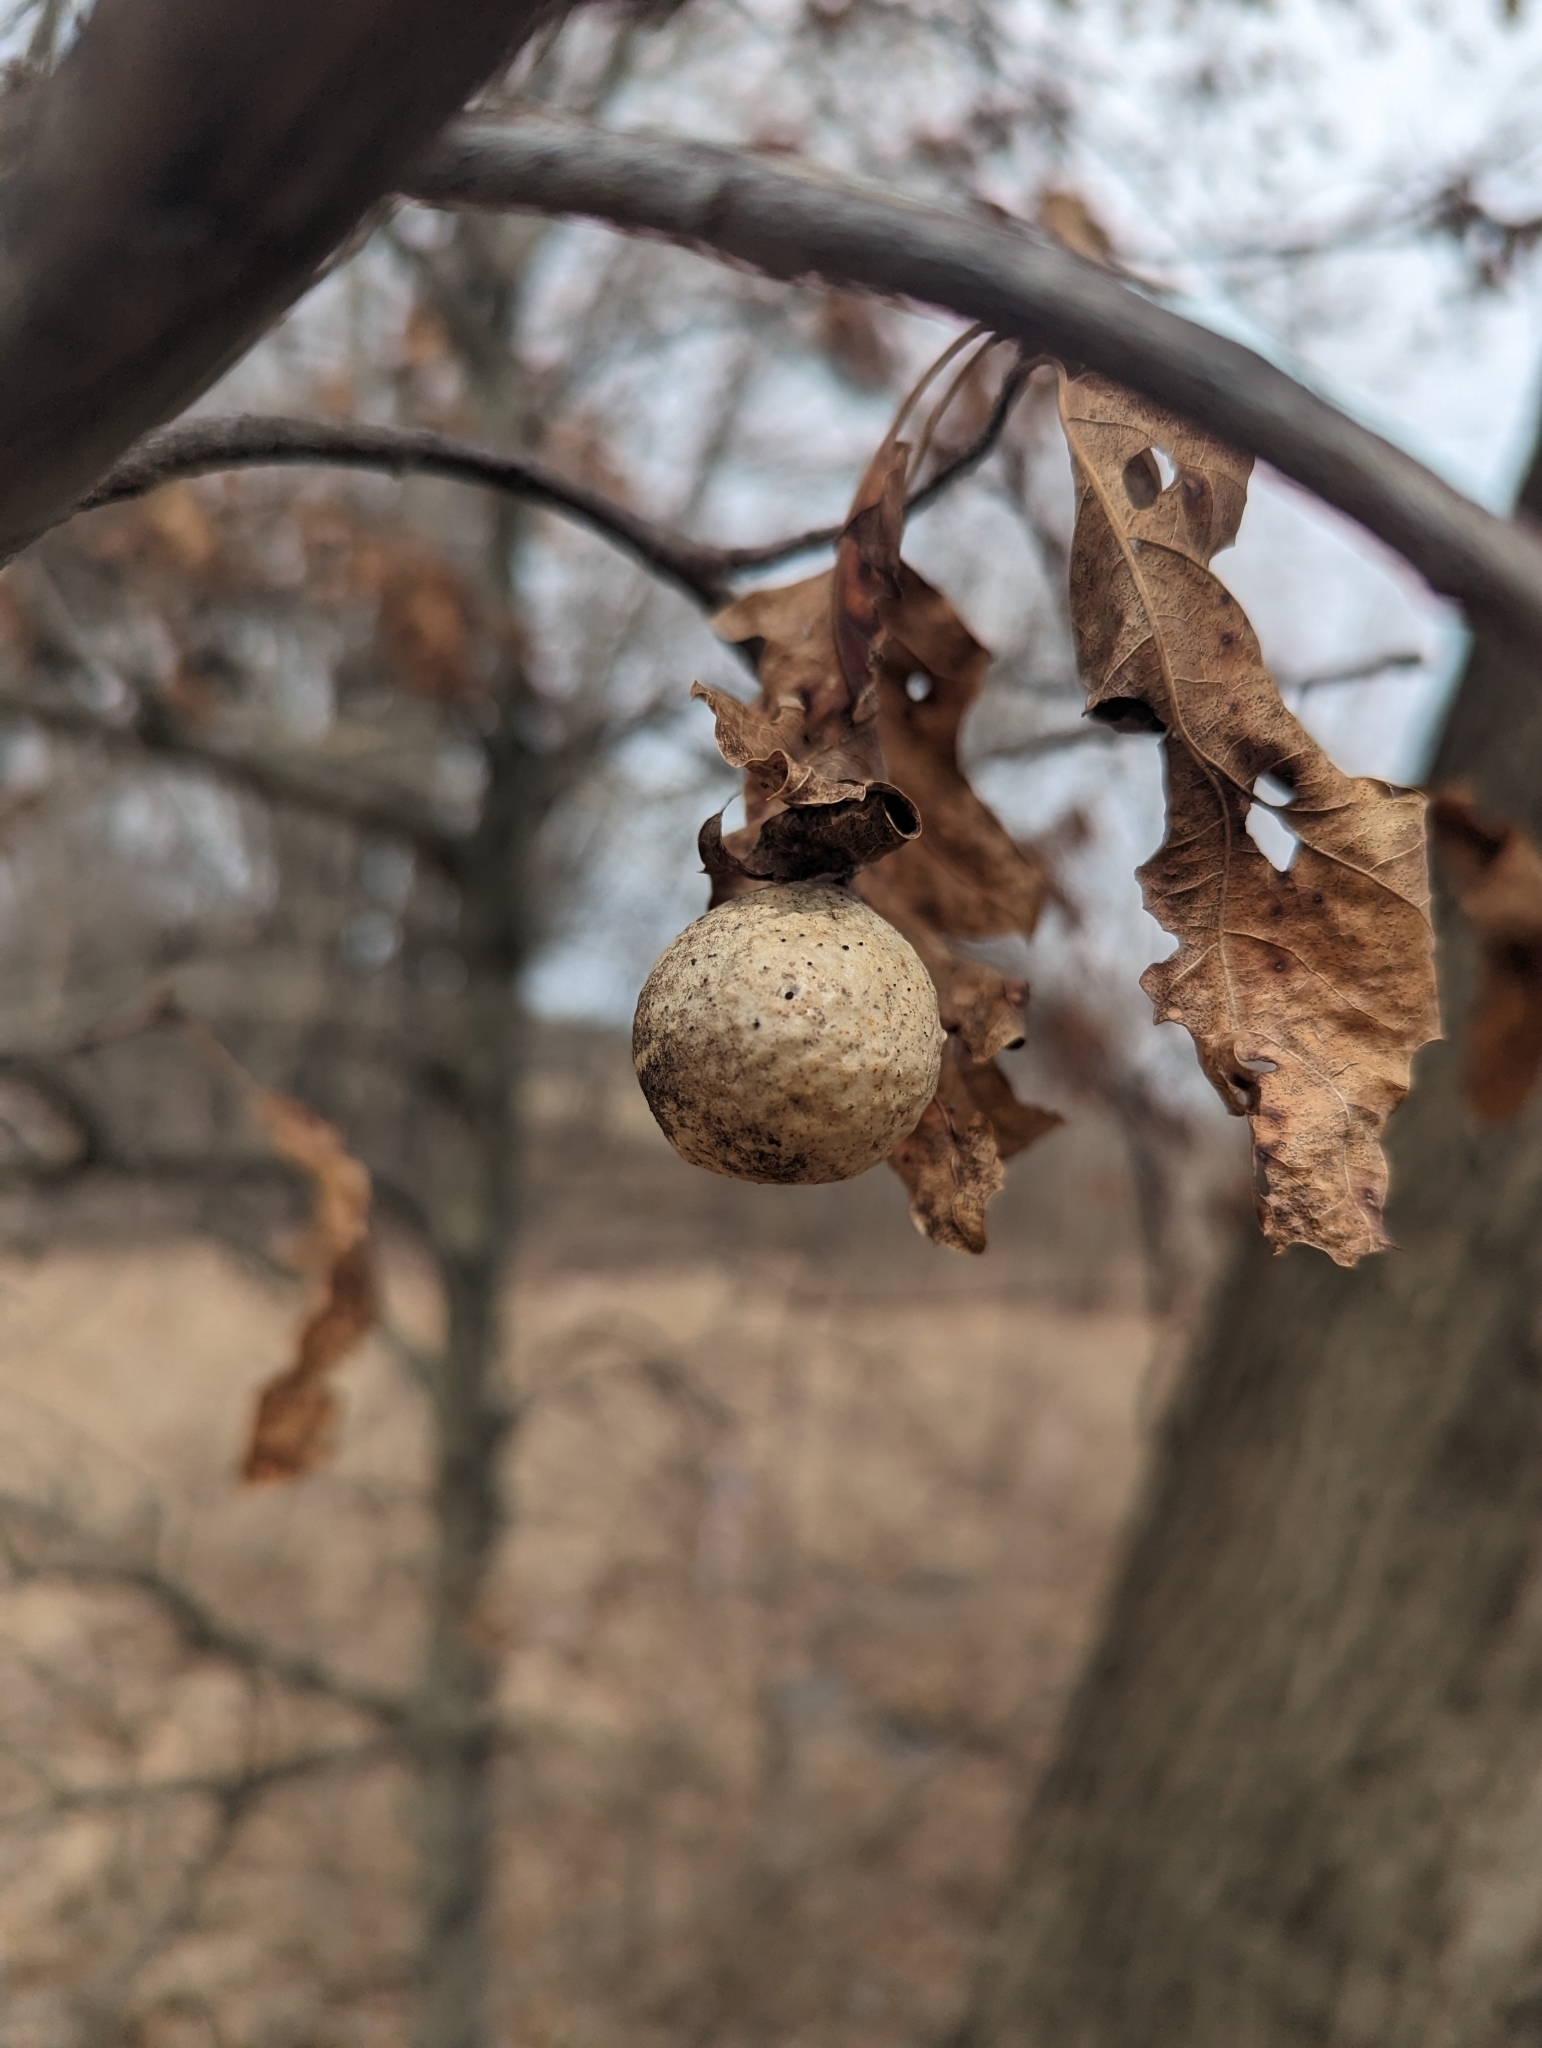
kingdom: Animalia
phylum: Arthropoda
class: Insecta
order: Hymenoptera
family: Cynipidae
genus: Amphibolips
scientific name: Amphibolips
